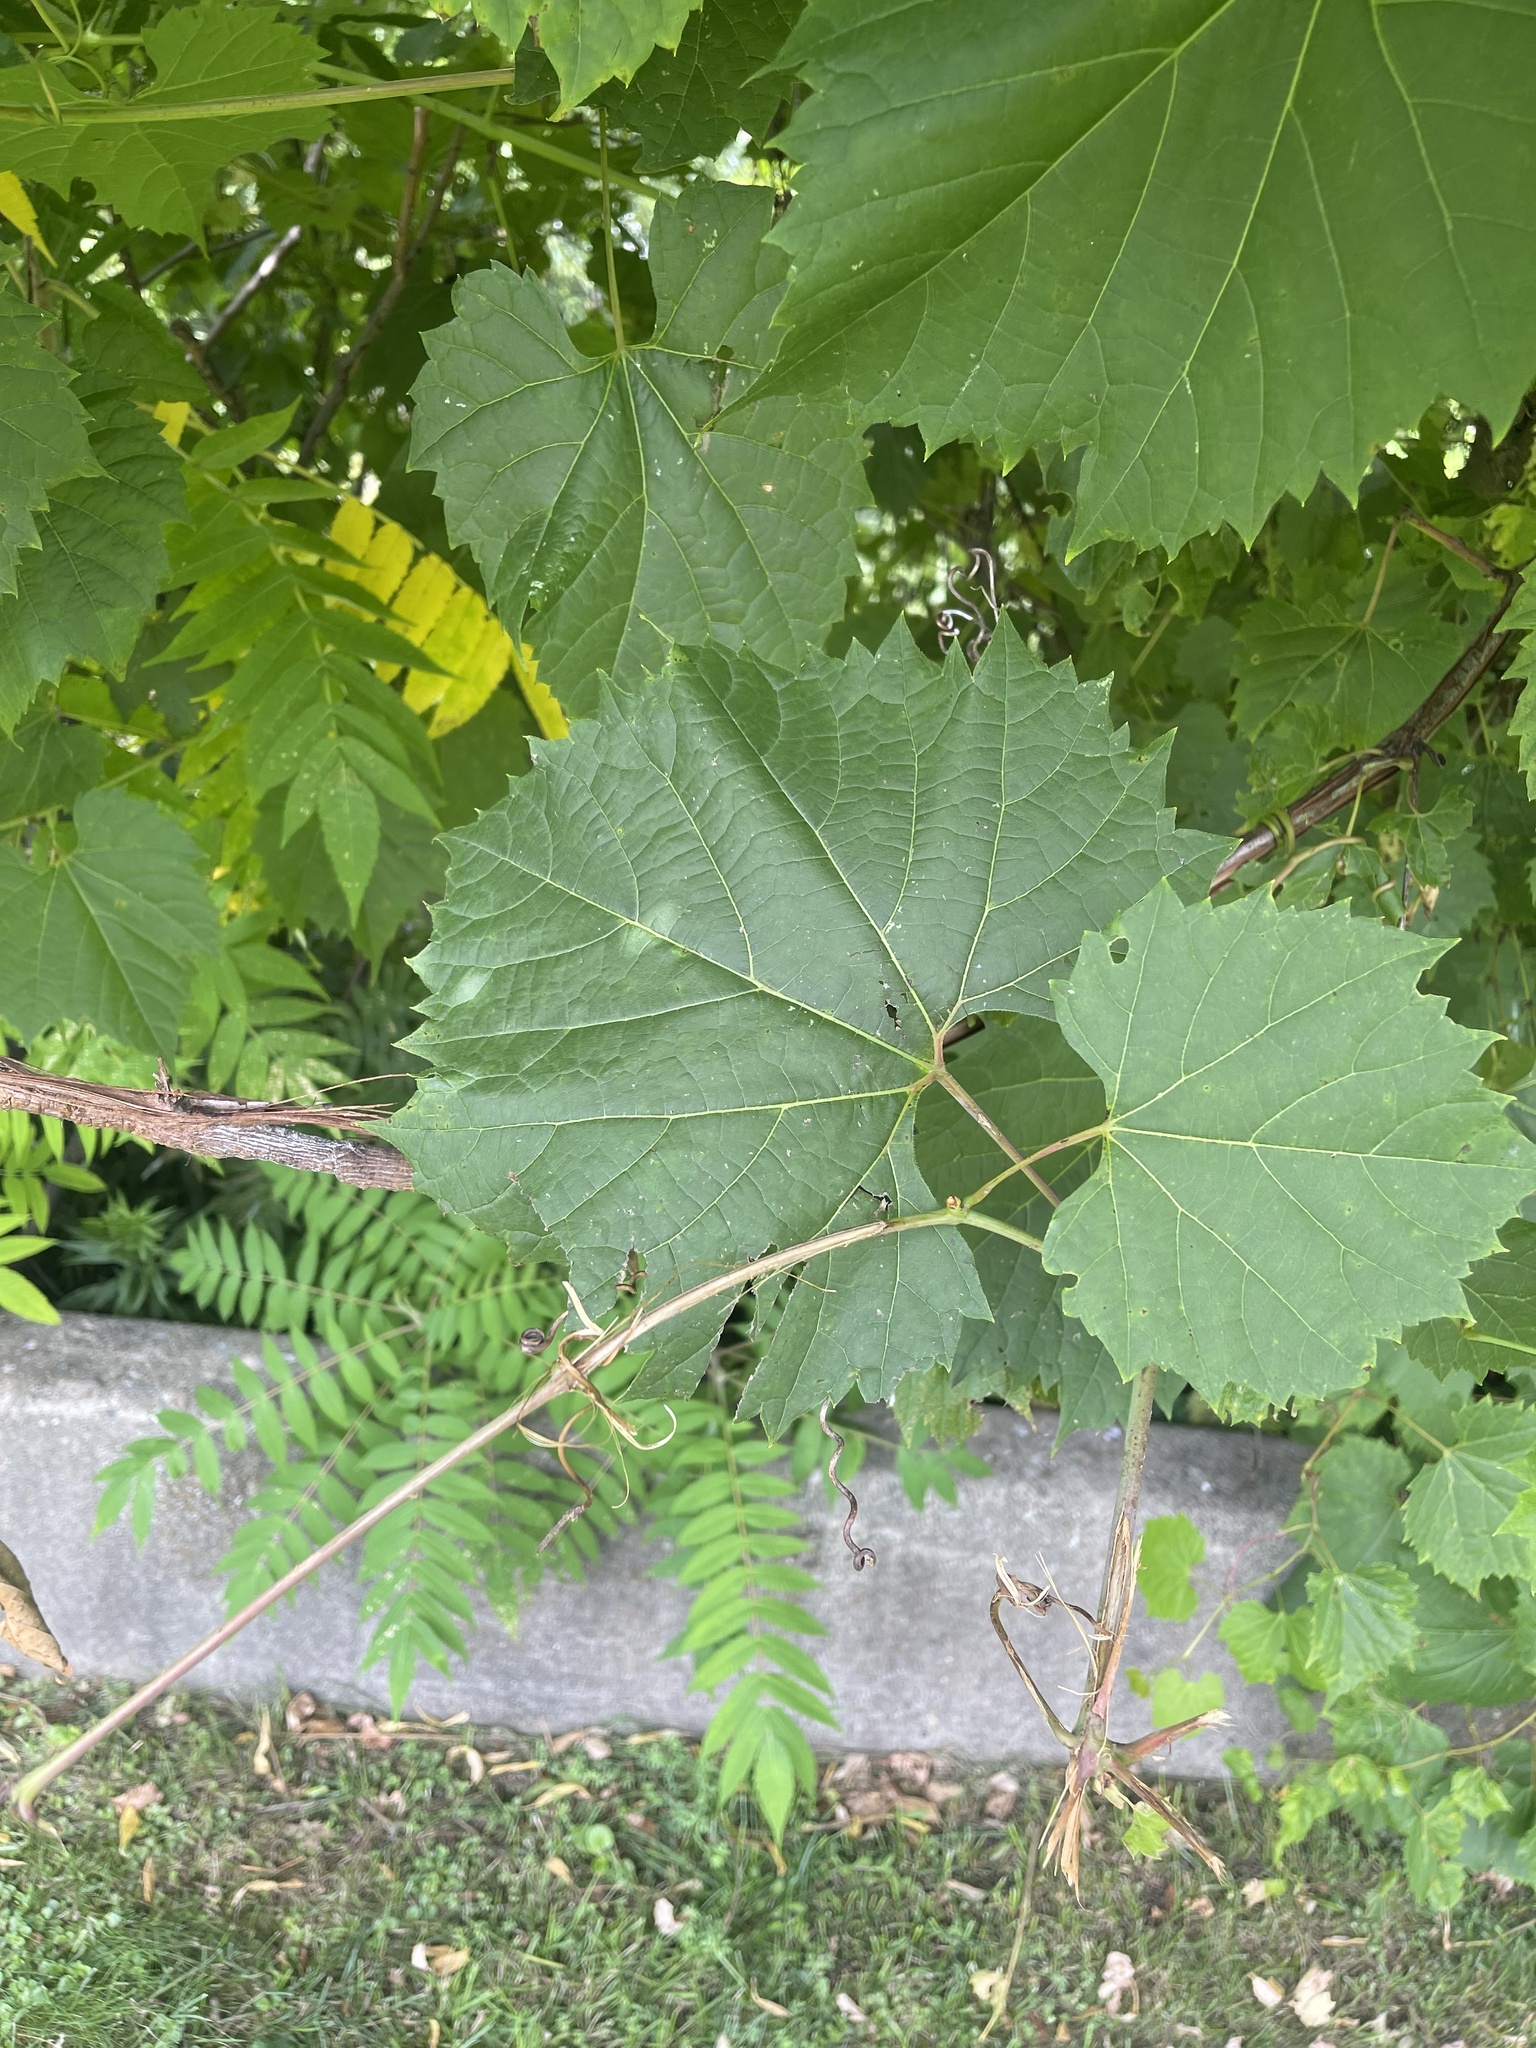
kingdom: Plantae
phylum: Tracheophyta
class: Magnoliopsida
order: Vitales
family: Vitaceae
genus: Vitis
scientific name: Vitis riparia
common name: Frost grape
